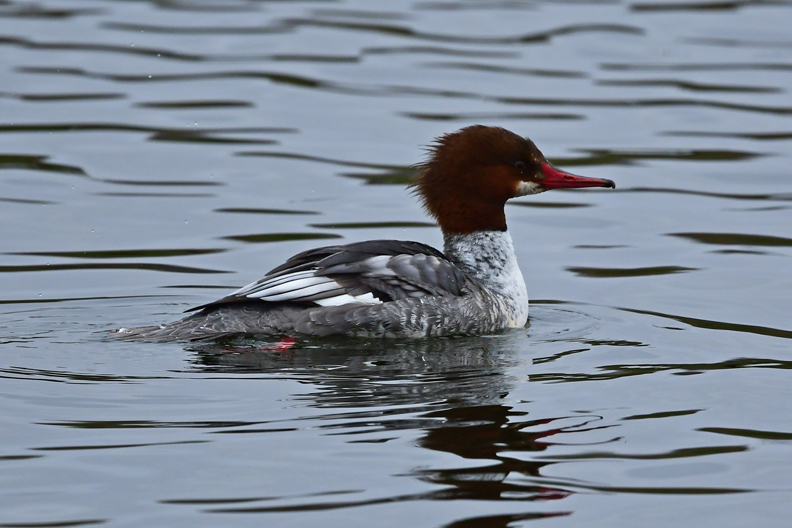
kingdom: Animalia
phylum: Chordata
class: Aves
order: Anseriformes
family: Anatidae
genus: Mergus
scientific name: Mergus merganser
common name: Common merganser
